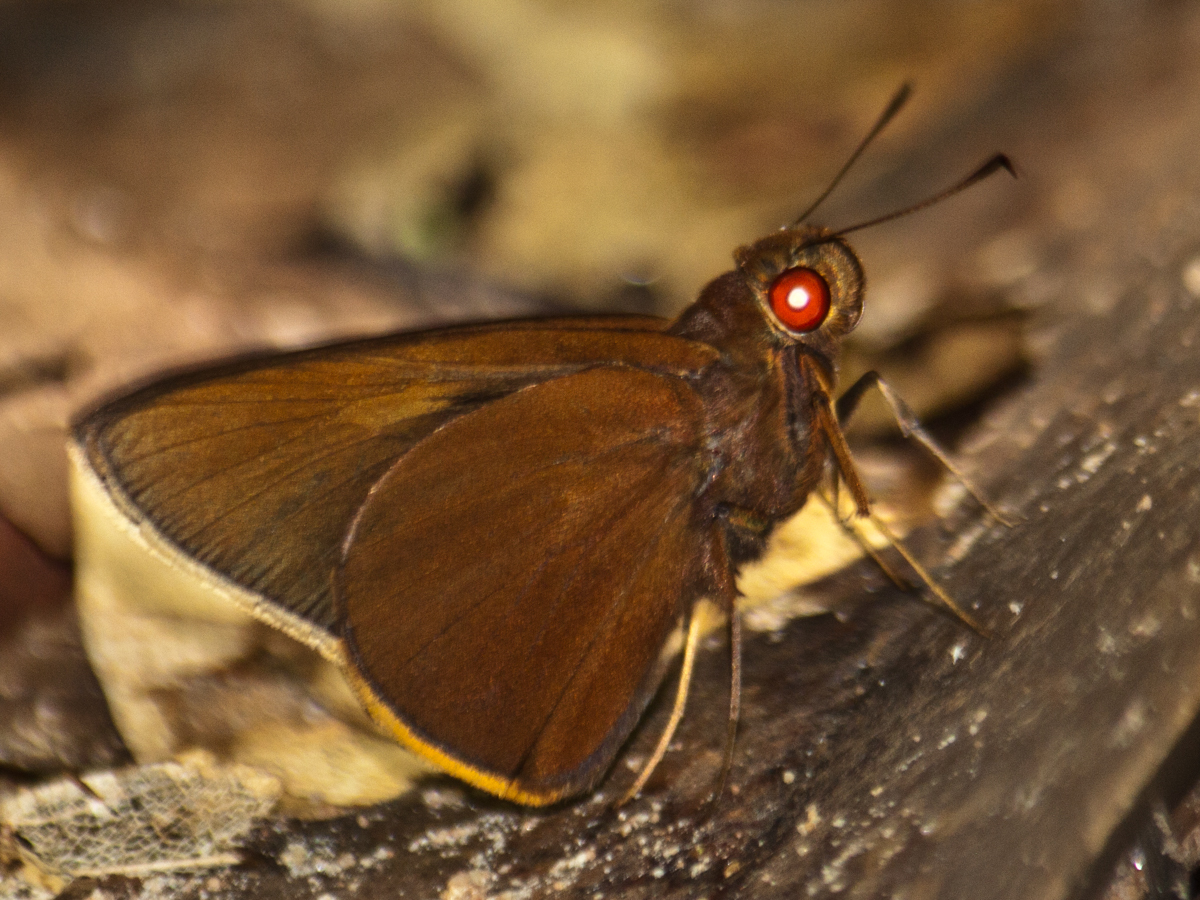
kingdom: Animalia
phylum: Arthropoda
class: Insecta
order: Lepidoptera
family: Hesperiidae
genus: Matapa
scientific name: Matapa druna
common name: Grey-brand redeye
